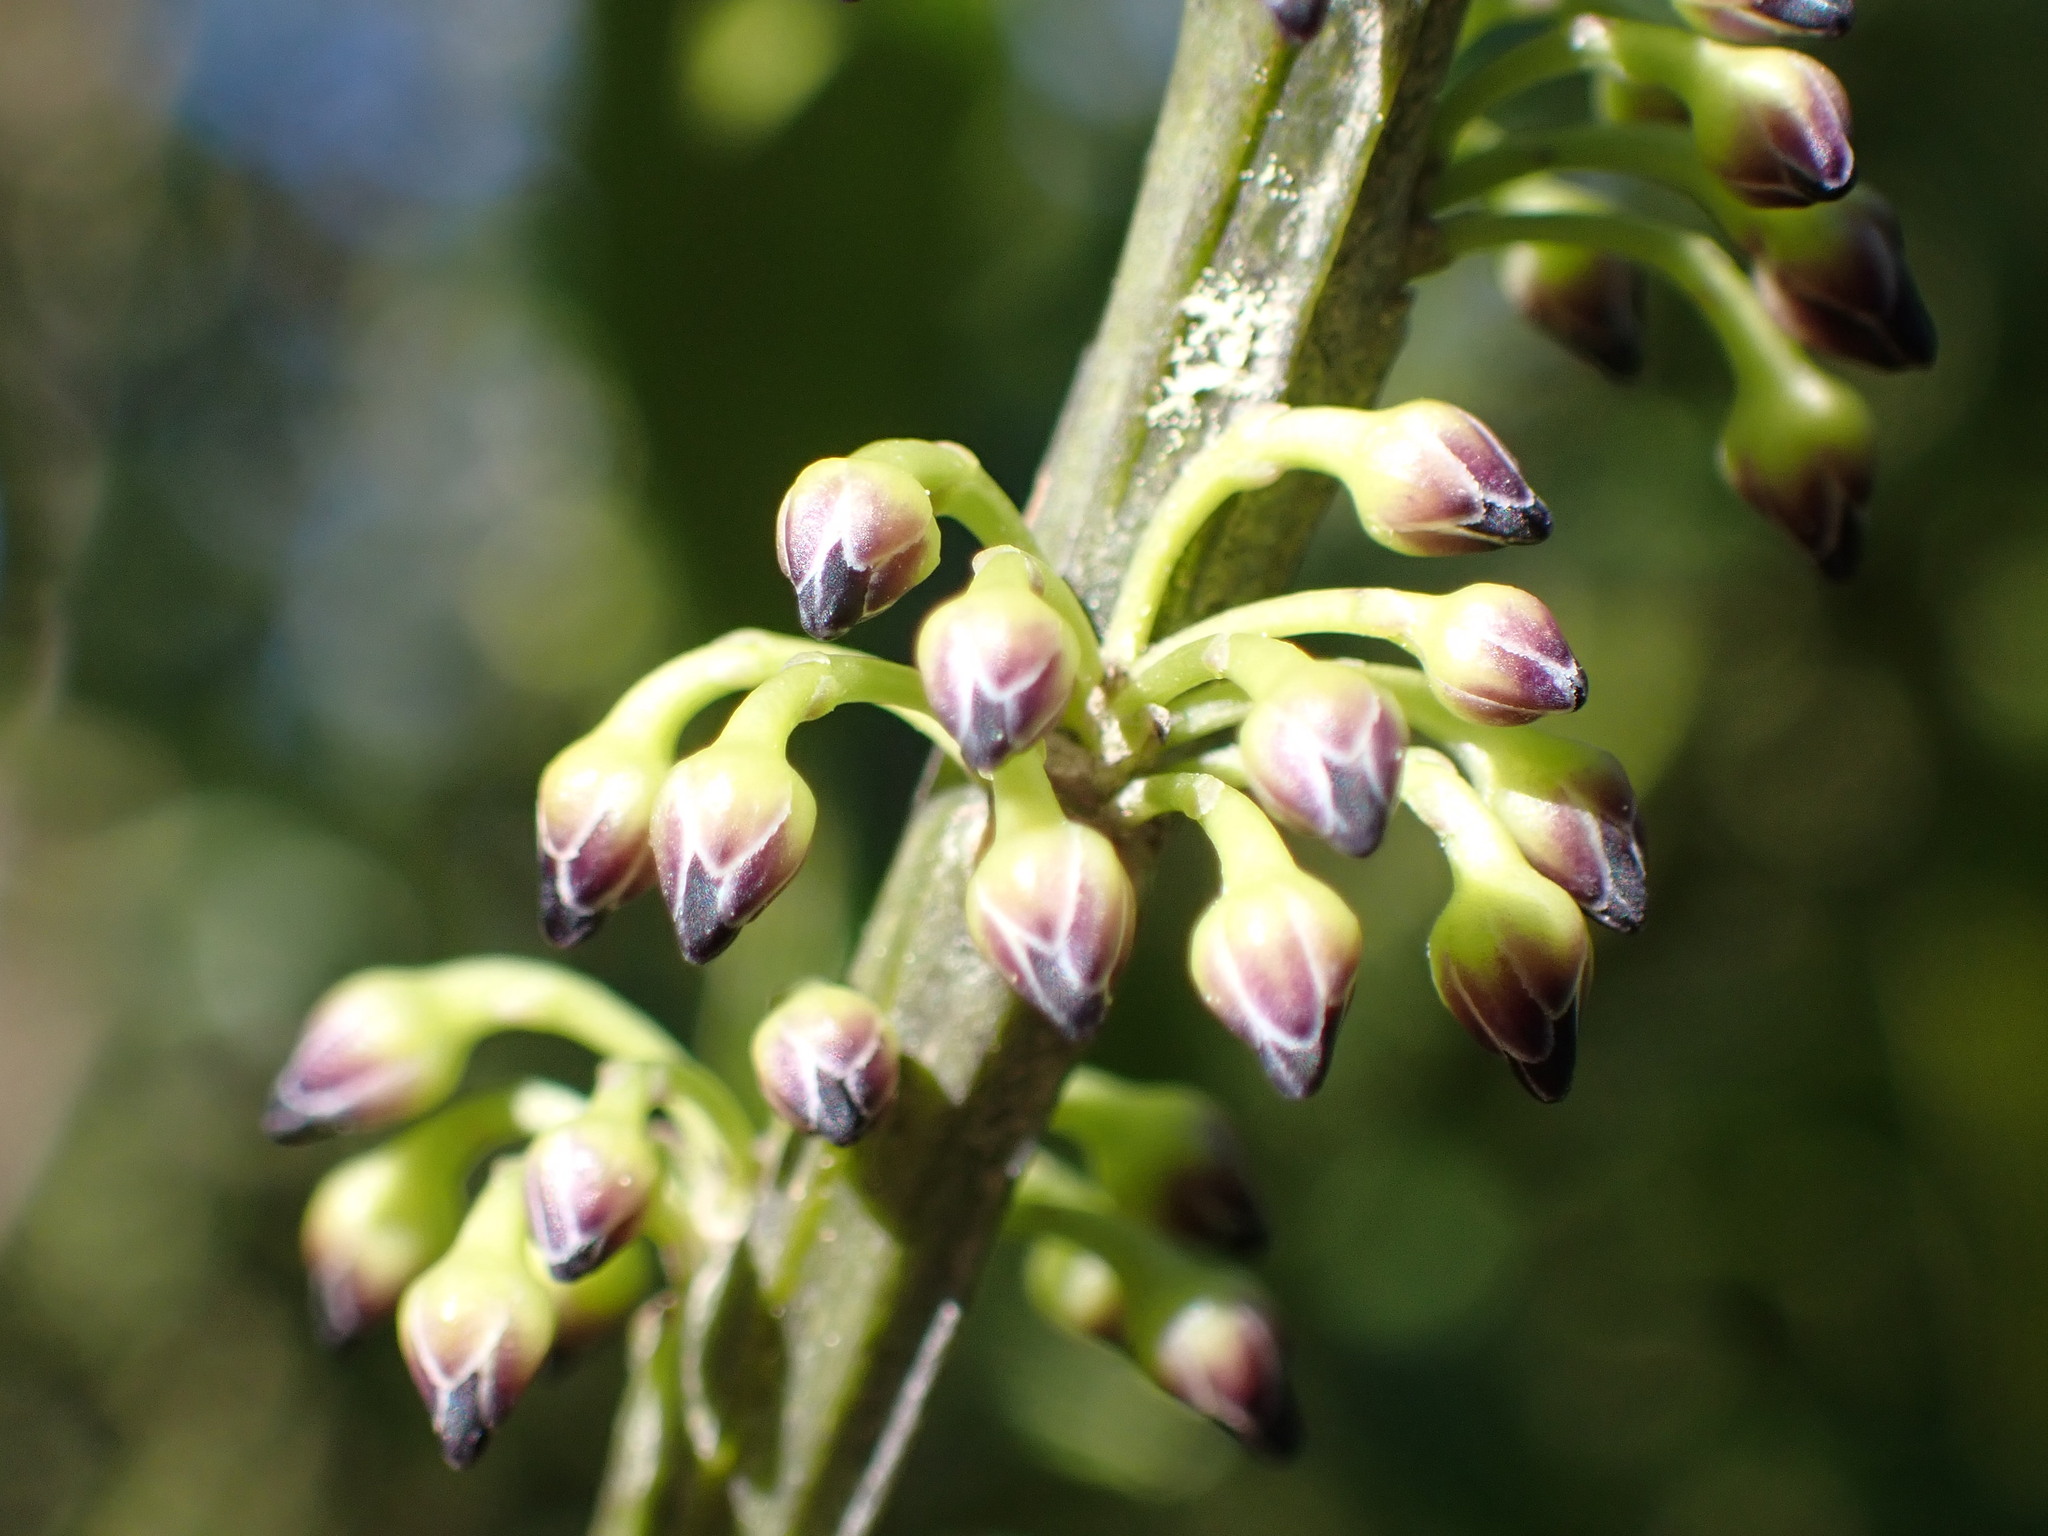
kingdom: Plantae
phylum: Tracheophyta
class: Magnoliopsida
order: Malpighiales
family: Violaceae
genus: Melicytus
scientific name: Melicytus lanceolatus
